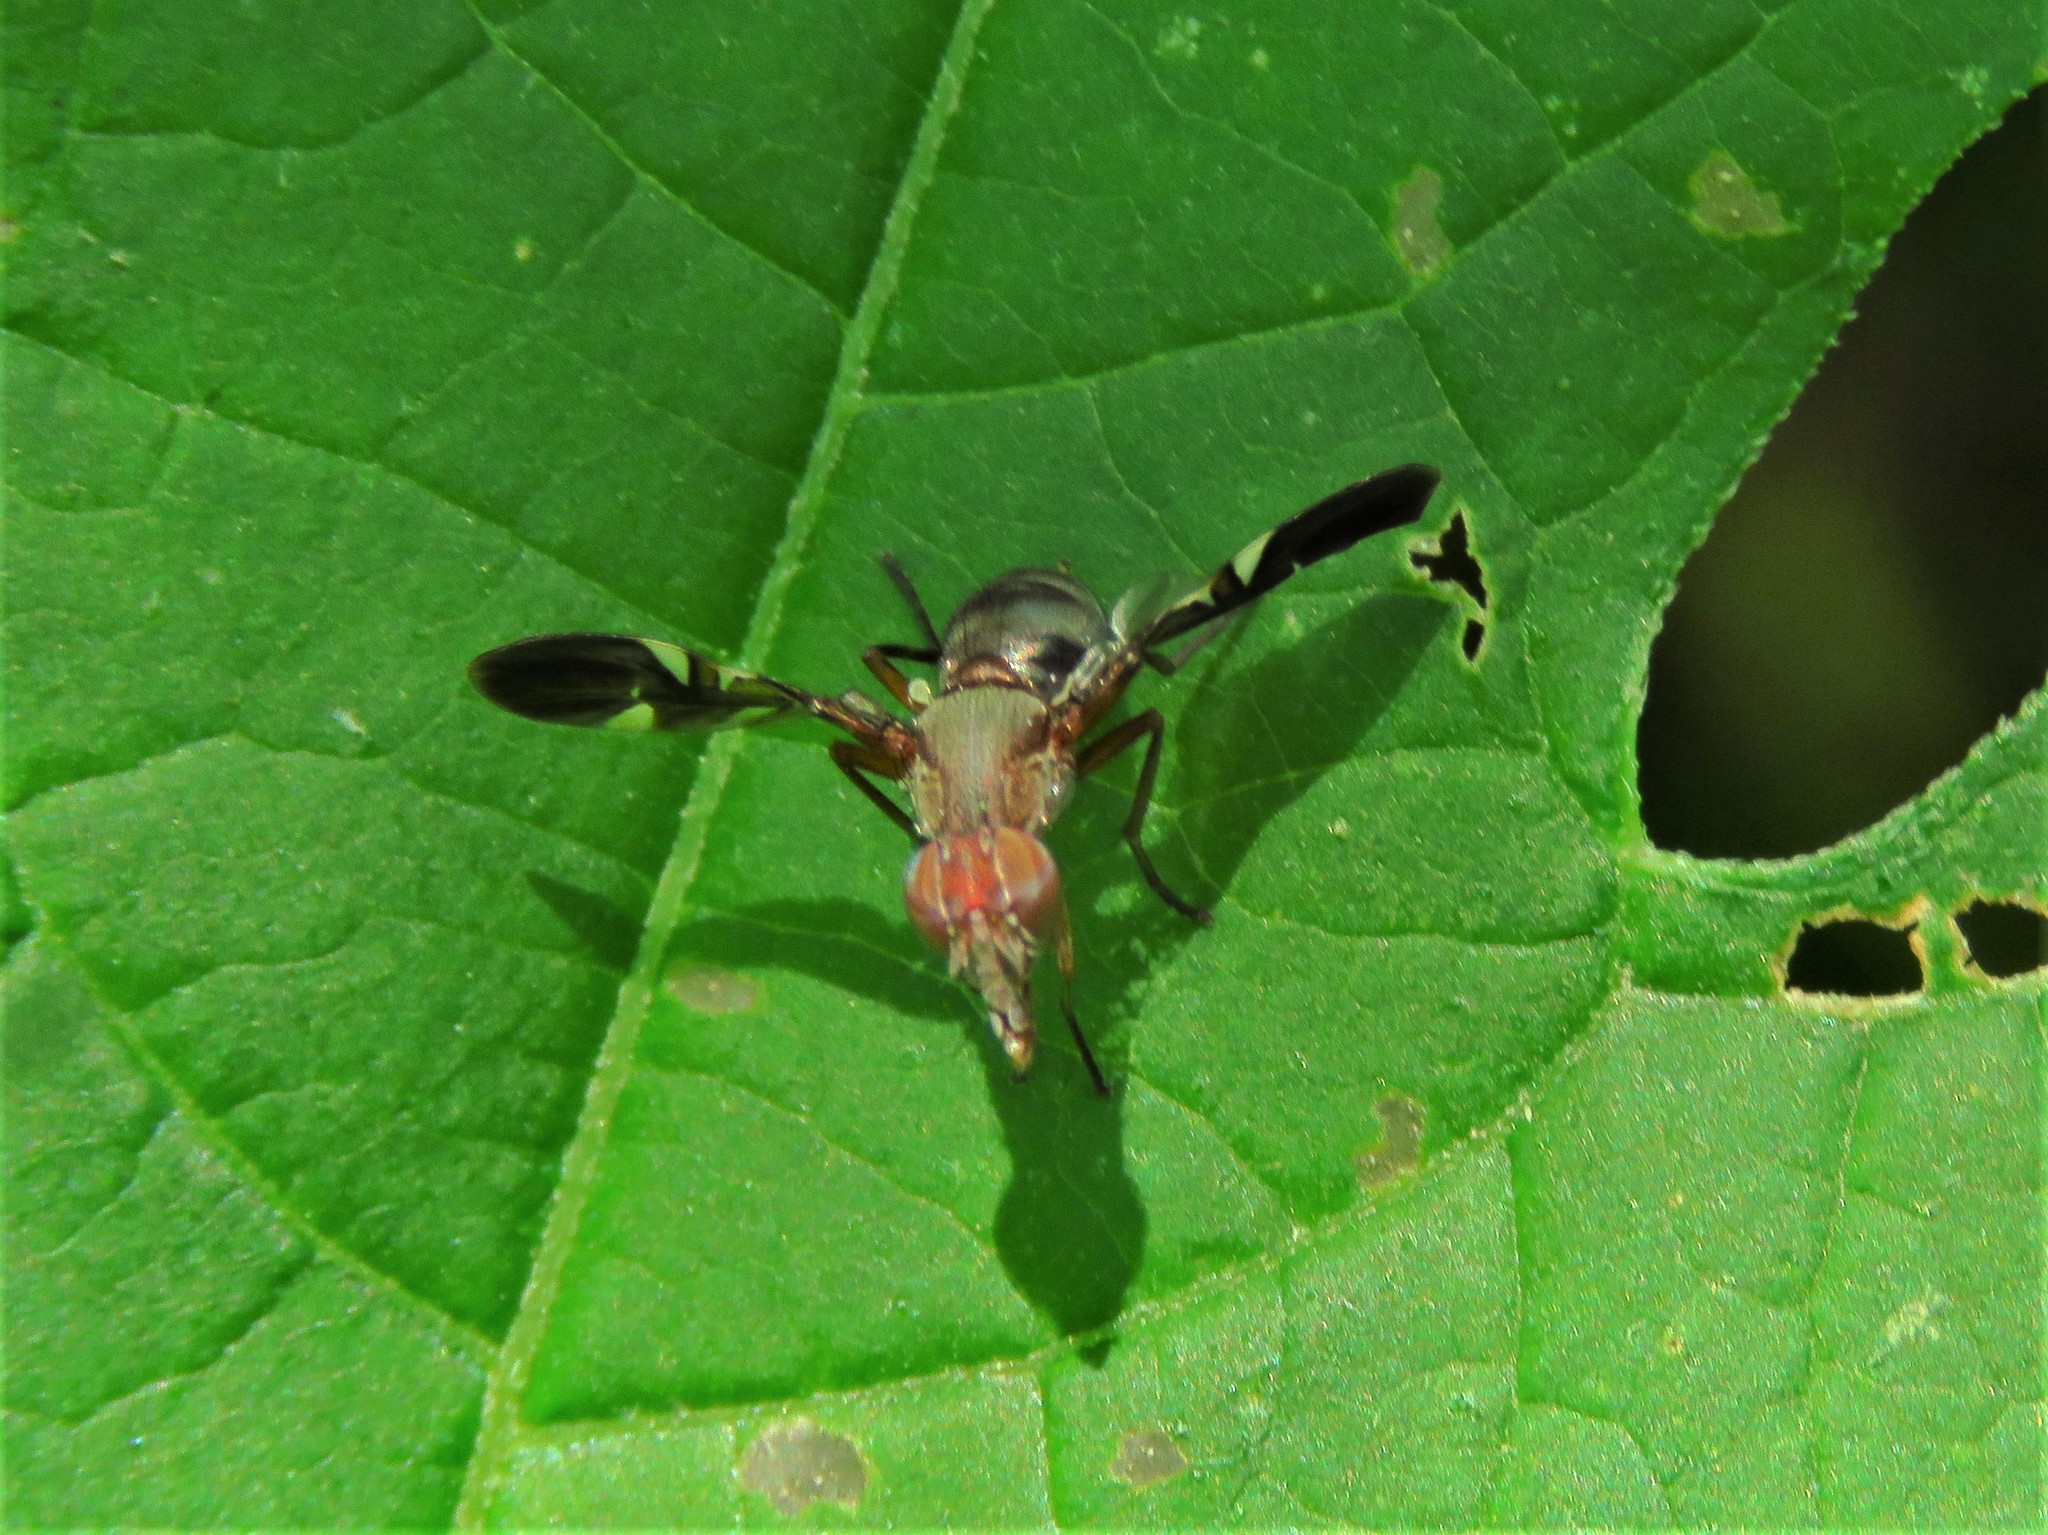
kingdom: Animalia
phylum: Arthropoda
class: Insecta
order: Diptera
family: Ulidiidae
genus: Delphinia
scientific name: Delphinia picta
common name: Common picture-winged fly
